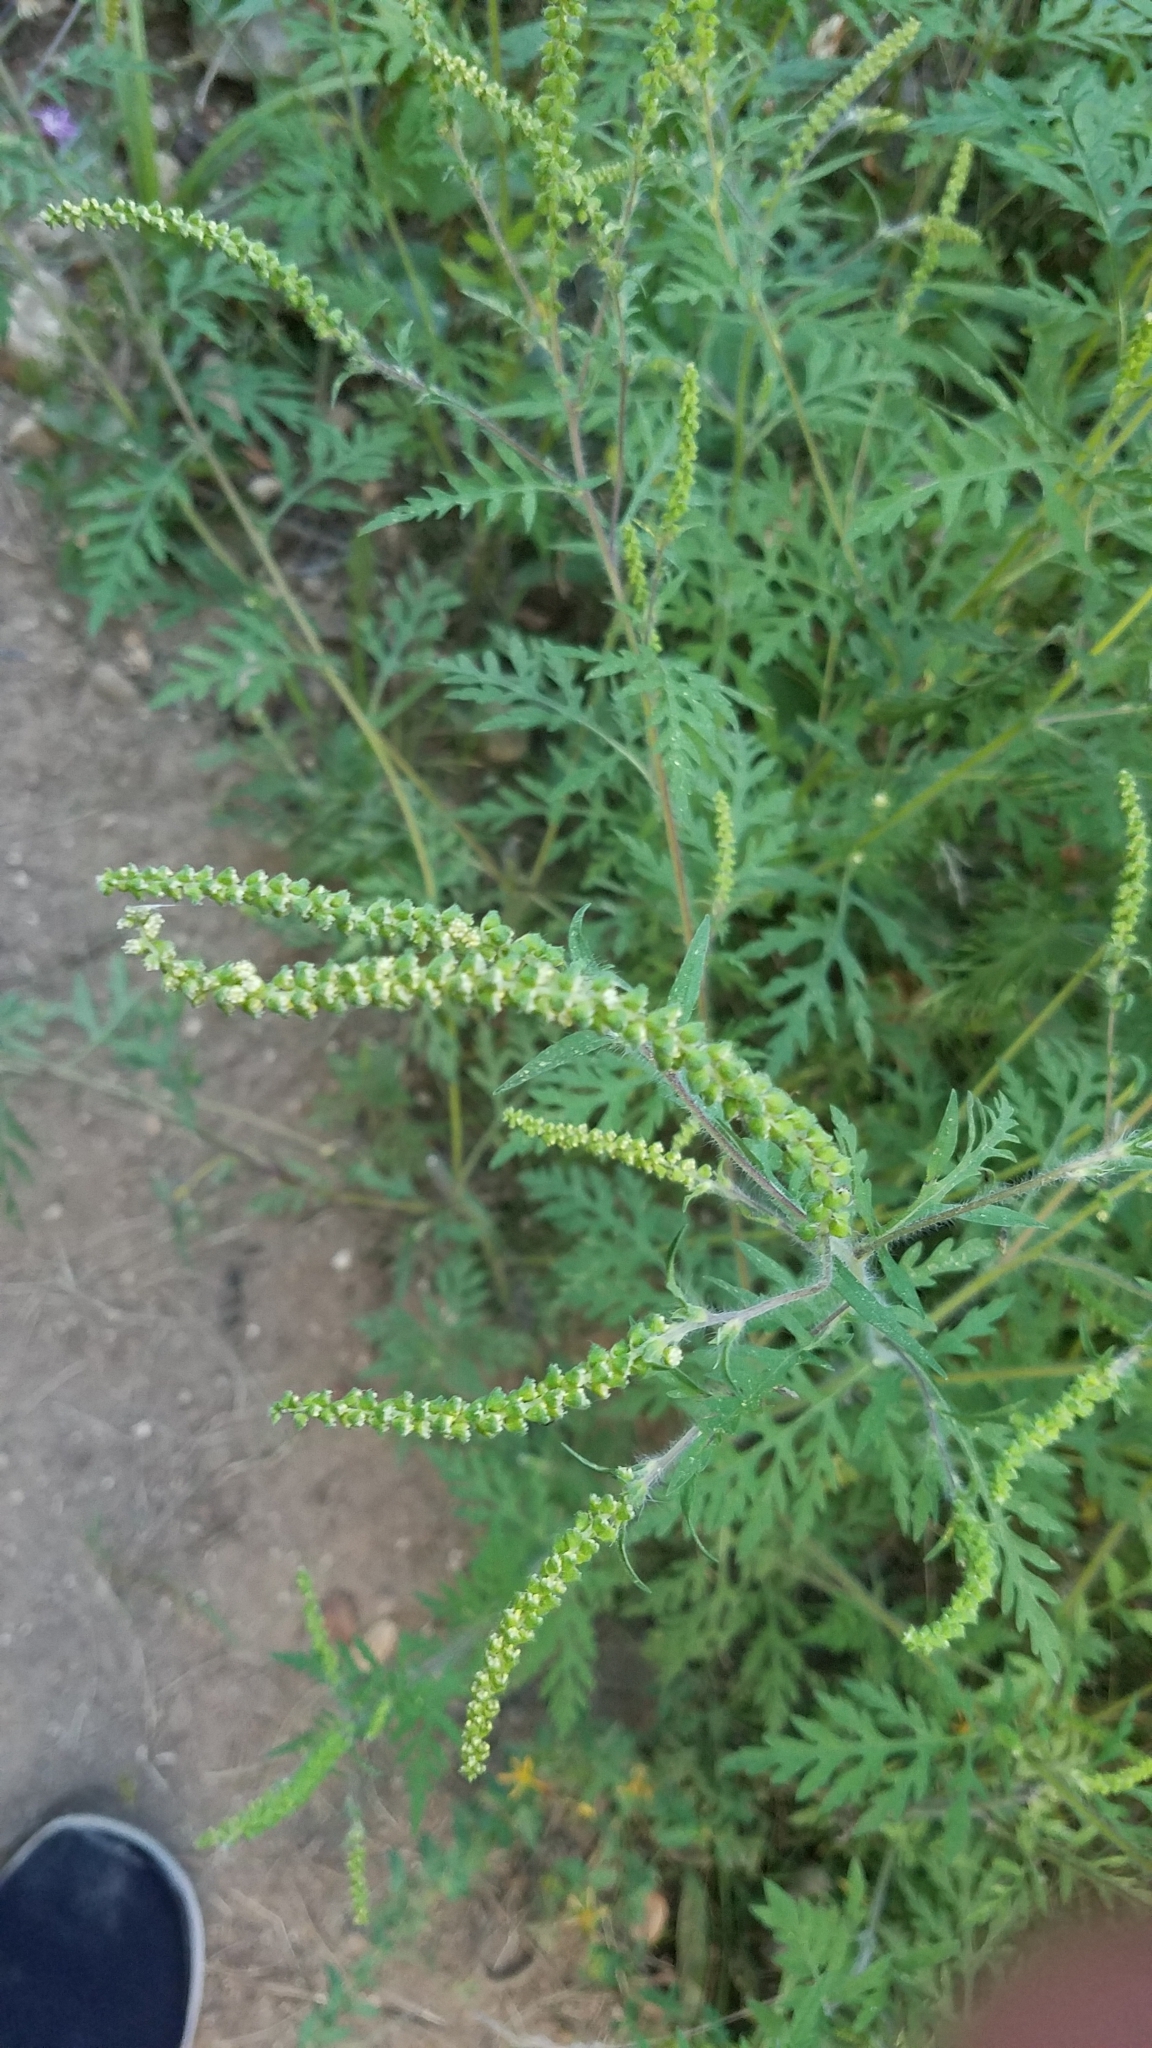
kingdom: Plantae
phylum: Tracheophyta
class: Magnoliopsida
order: Asterales
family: Asteraceae
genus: Ambrosia
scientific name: Ambrosia artemisiifolia
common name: Annual ragweed
